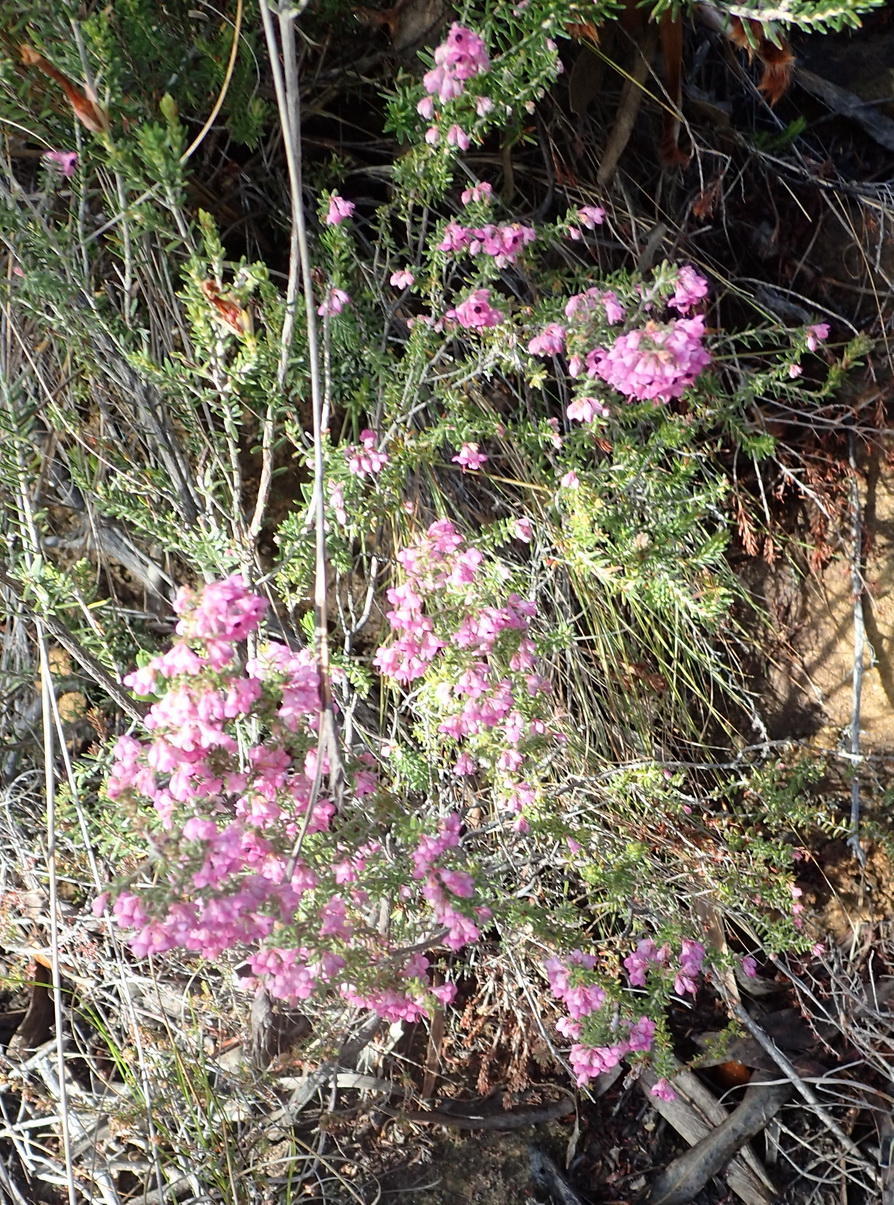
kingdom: Plantae
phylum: Tracheophyta
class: Magnoliopsida
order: Ericales
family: Ericaceae
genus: Erica
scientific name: Erica melanthera
